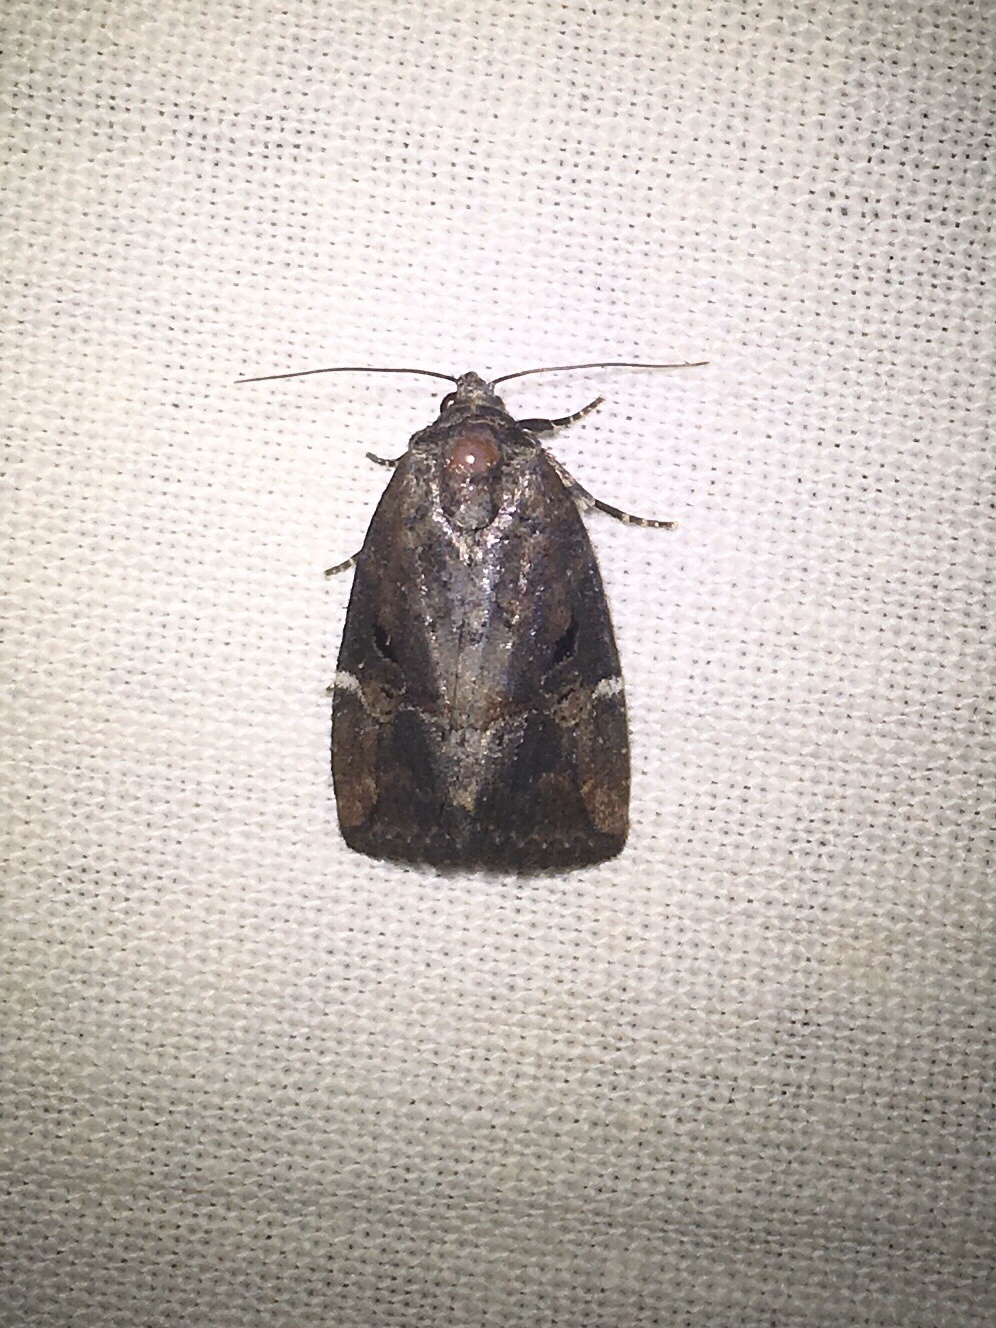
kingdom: Animalia
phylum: Arthropoda
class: Insecta
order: Lepidoptera
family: Noctuidae
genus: Elaphria
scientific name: Elaphria versicolor
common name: Fir harlequin
